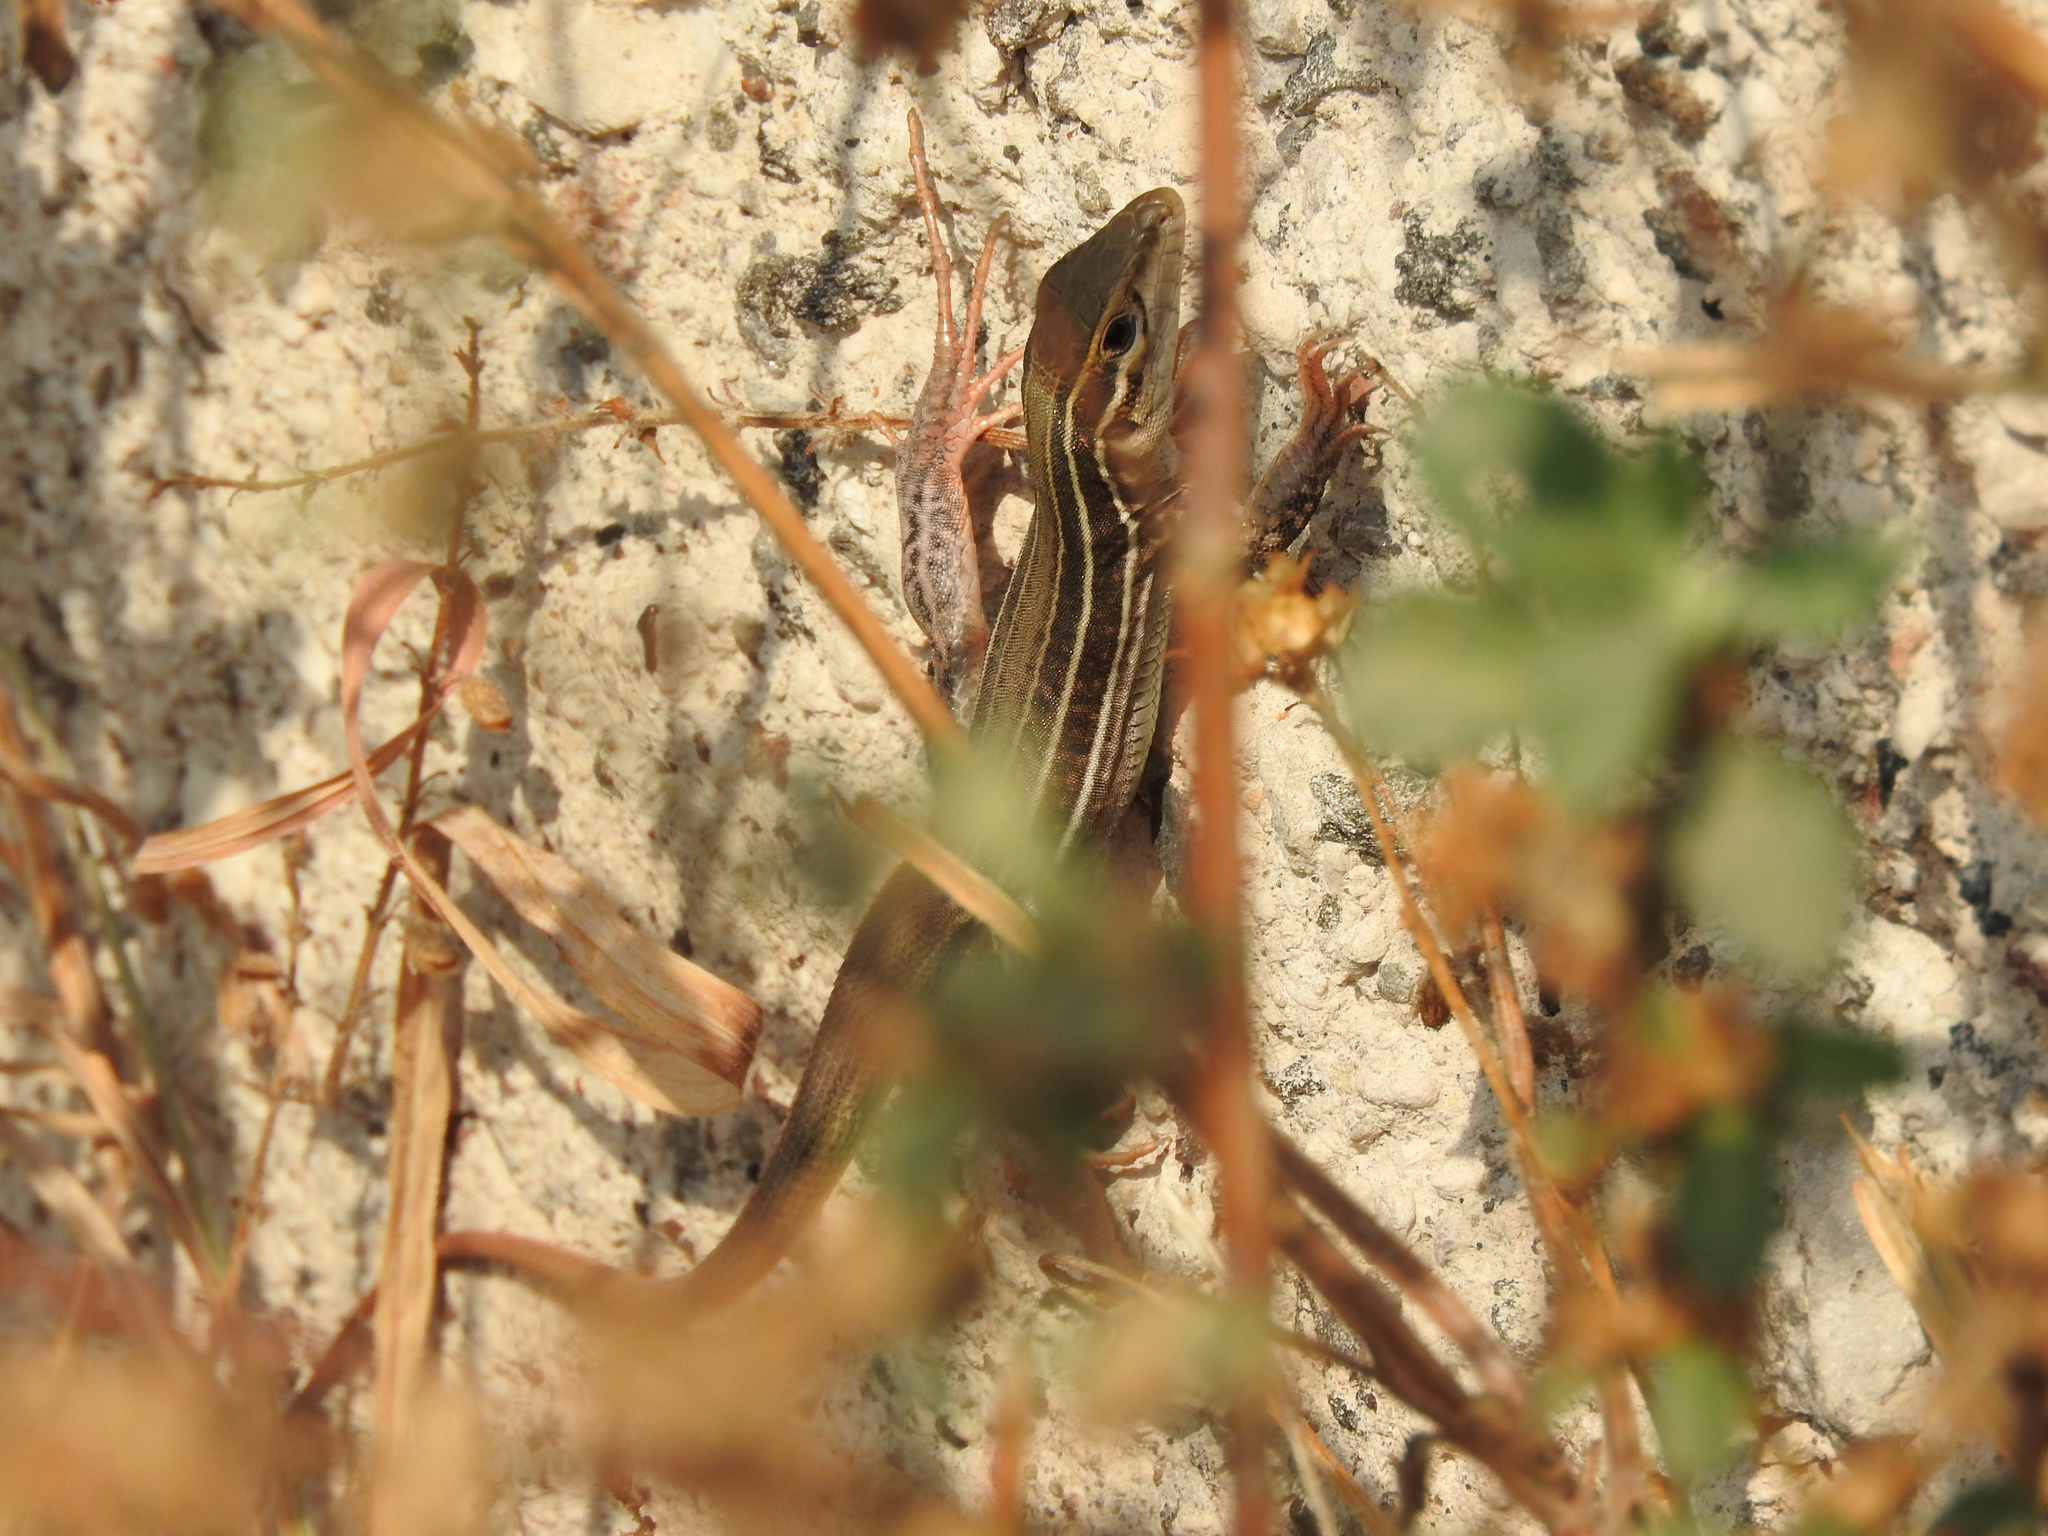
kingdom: Animalia
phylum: Chordata
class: Squamata
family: Teiidae
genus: Aspidoscelis
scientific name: Aspidoscelis gularis
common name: Eastern spotted whiptail
